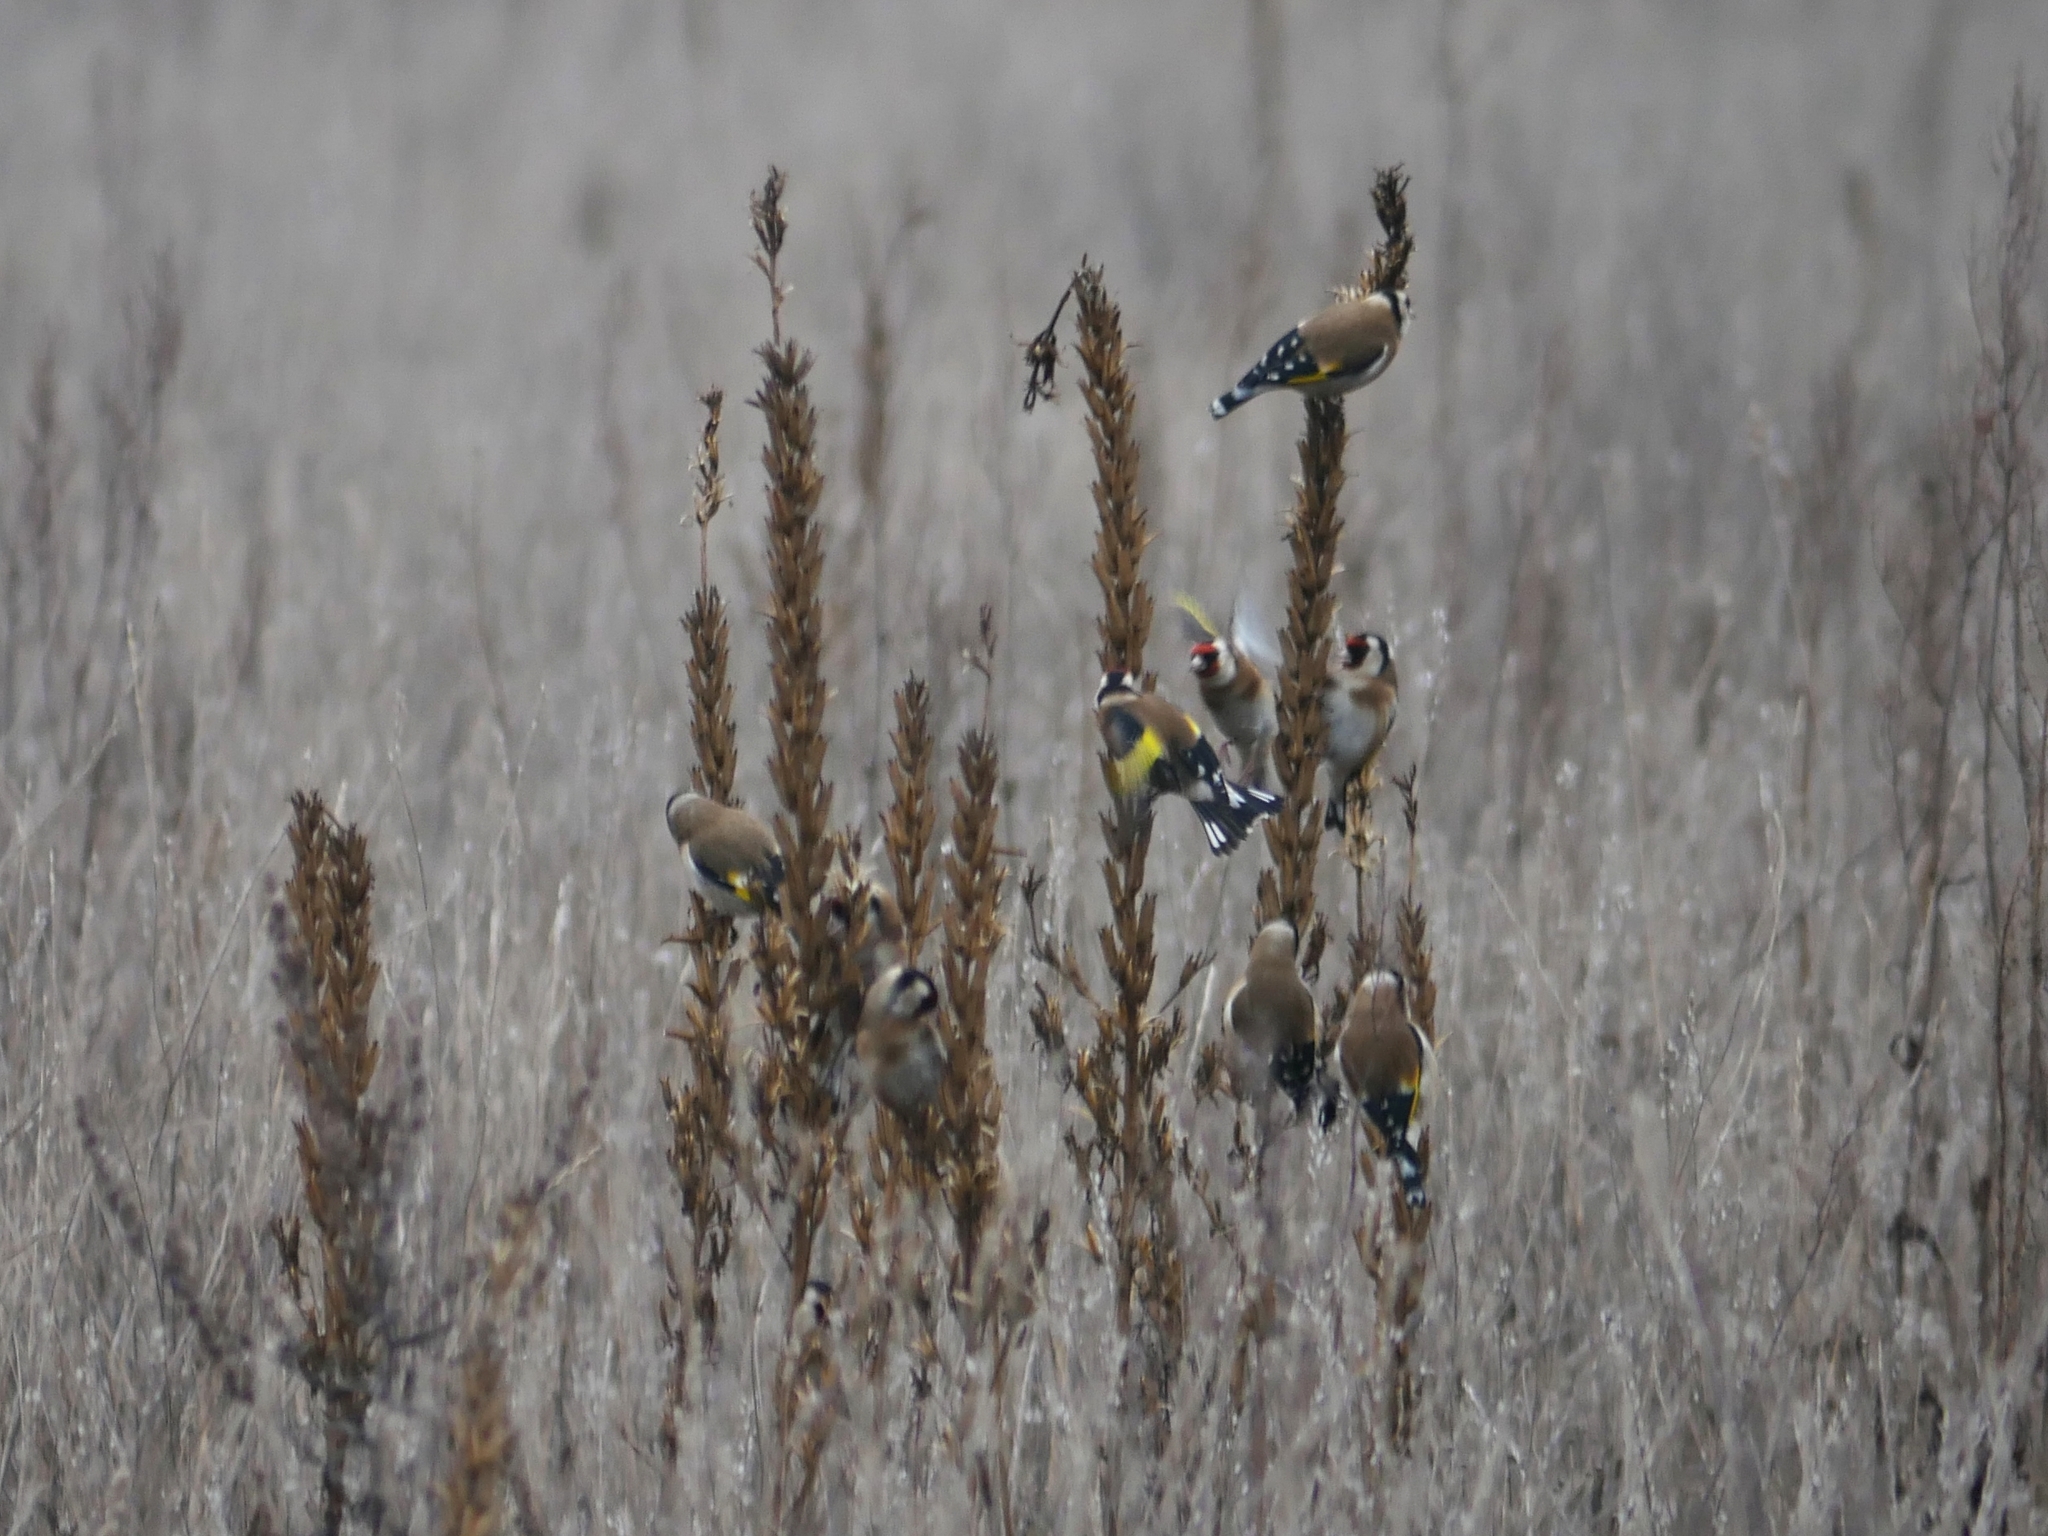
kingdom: Animalia
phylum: Chordata
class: Aves
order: Passeriformes
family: Fringillidae
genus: Carduelis
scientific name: Carduelis carduelis
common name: European goldfinch
